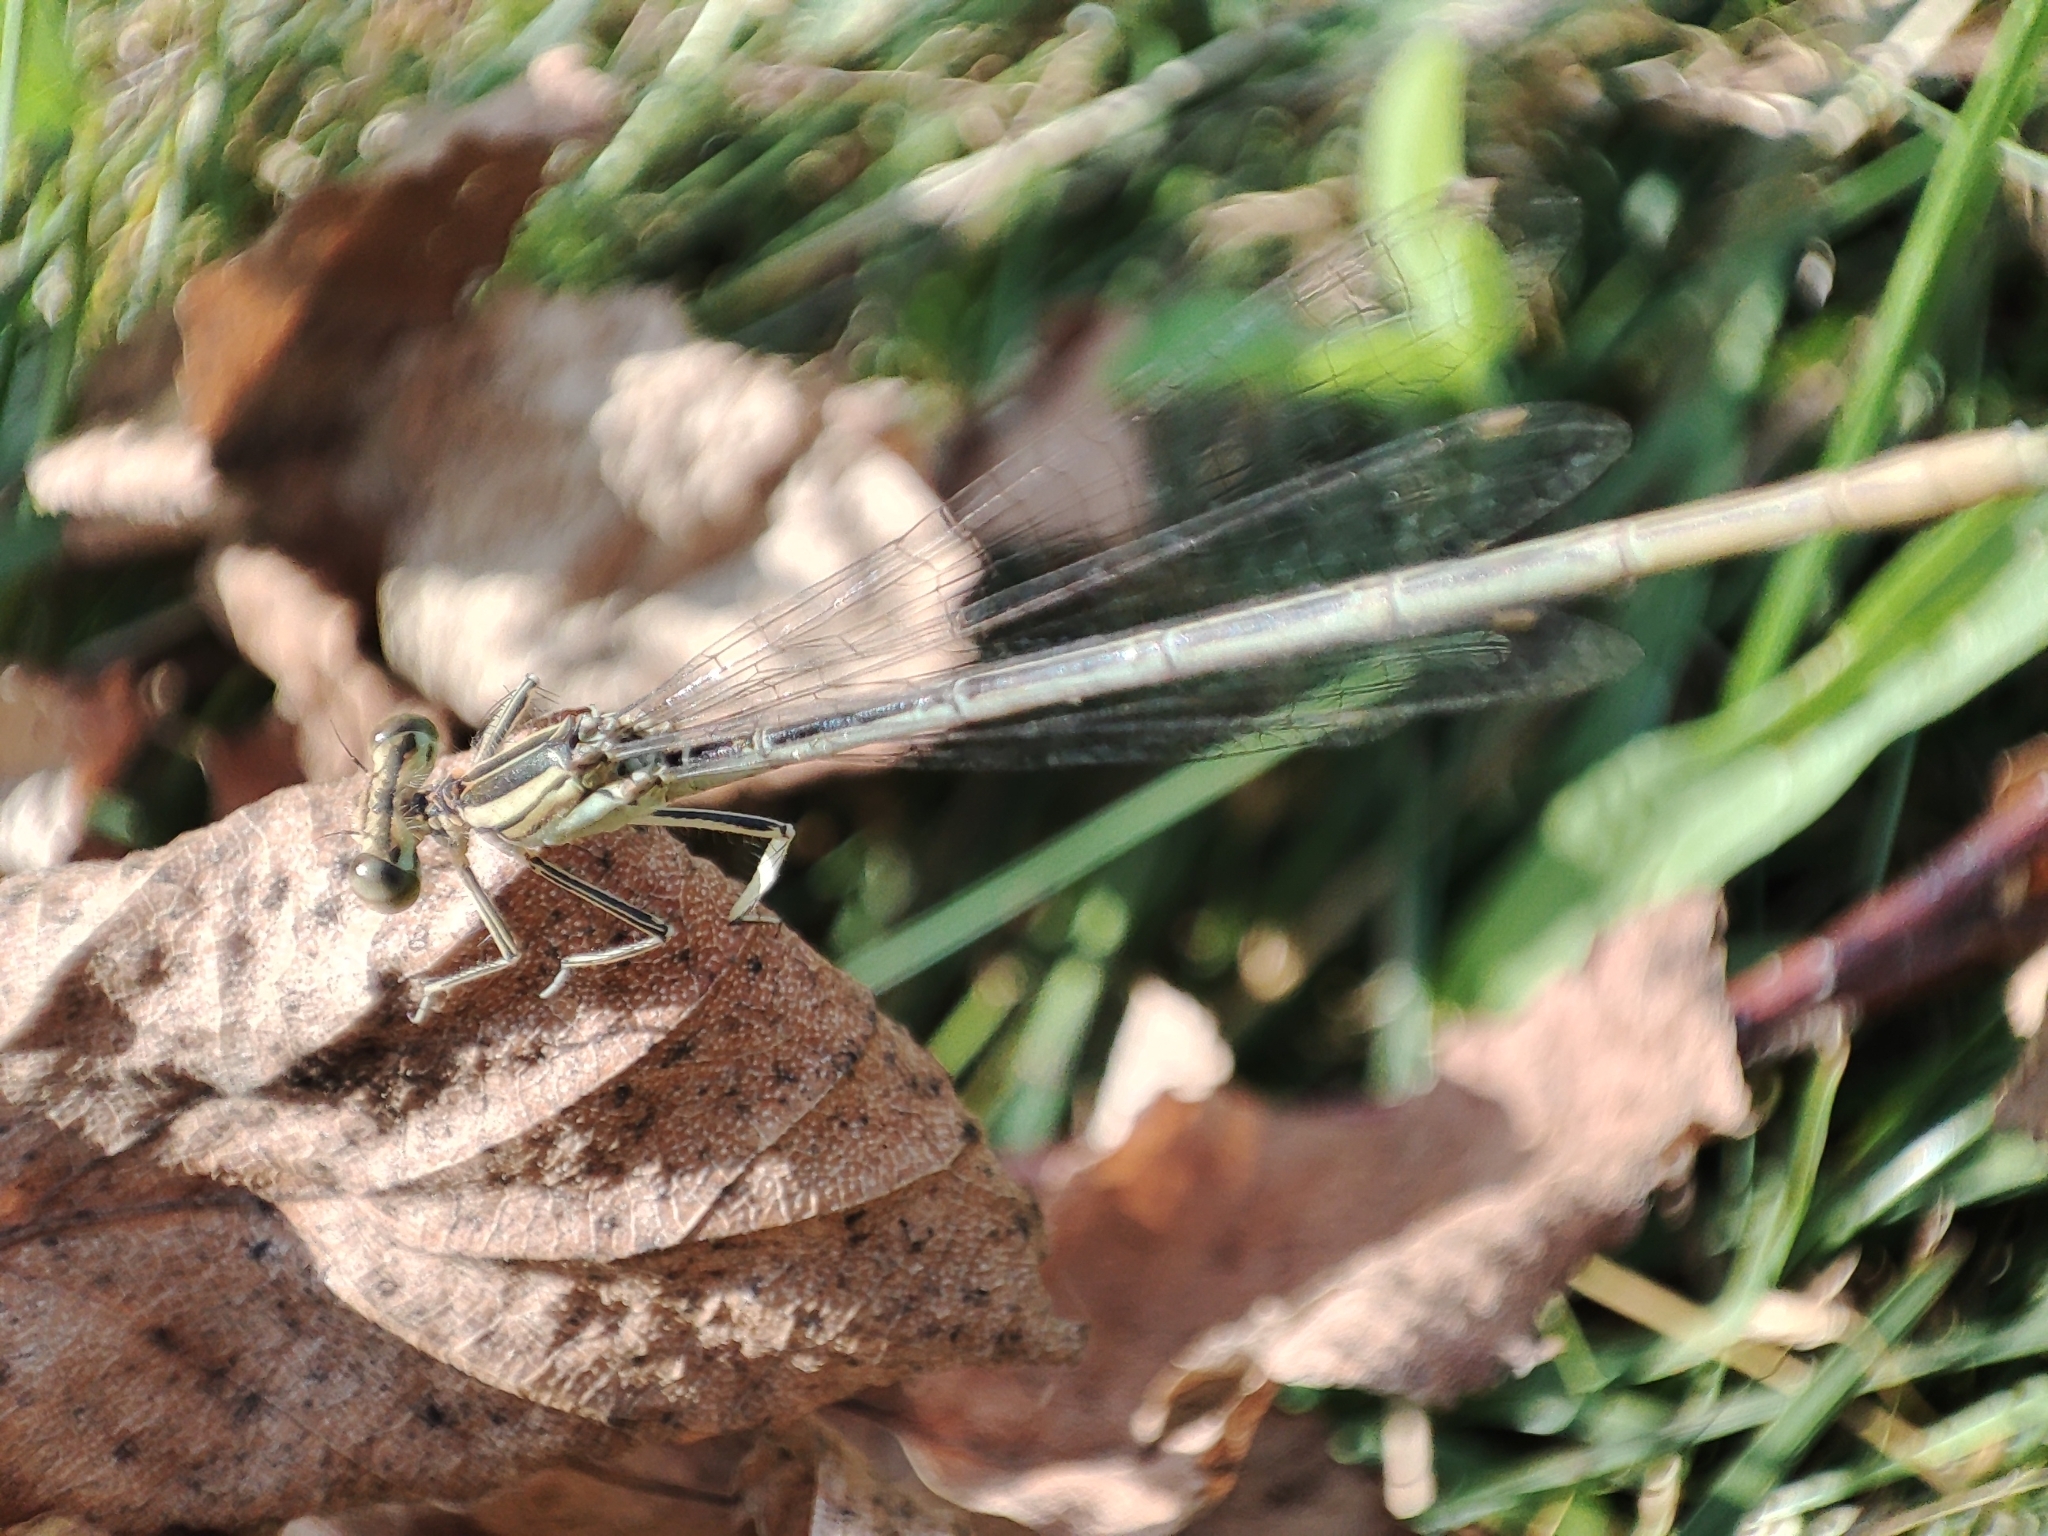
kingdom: Animalia
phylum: Arthropoda
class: Insecta
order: Odonata
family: Platycnemididae
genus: Platycnemis
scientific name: Platycnemis pennipes
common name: White-legged damselfly
